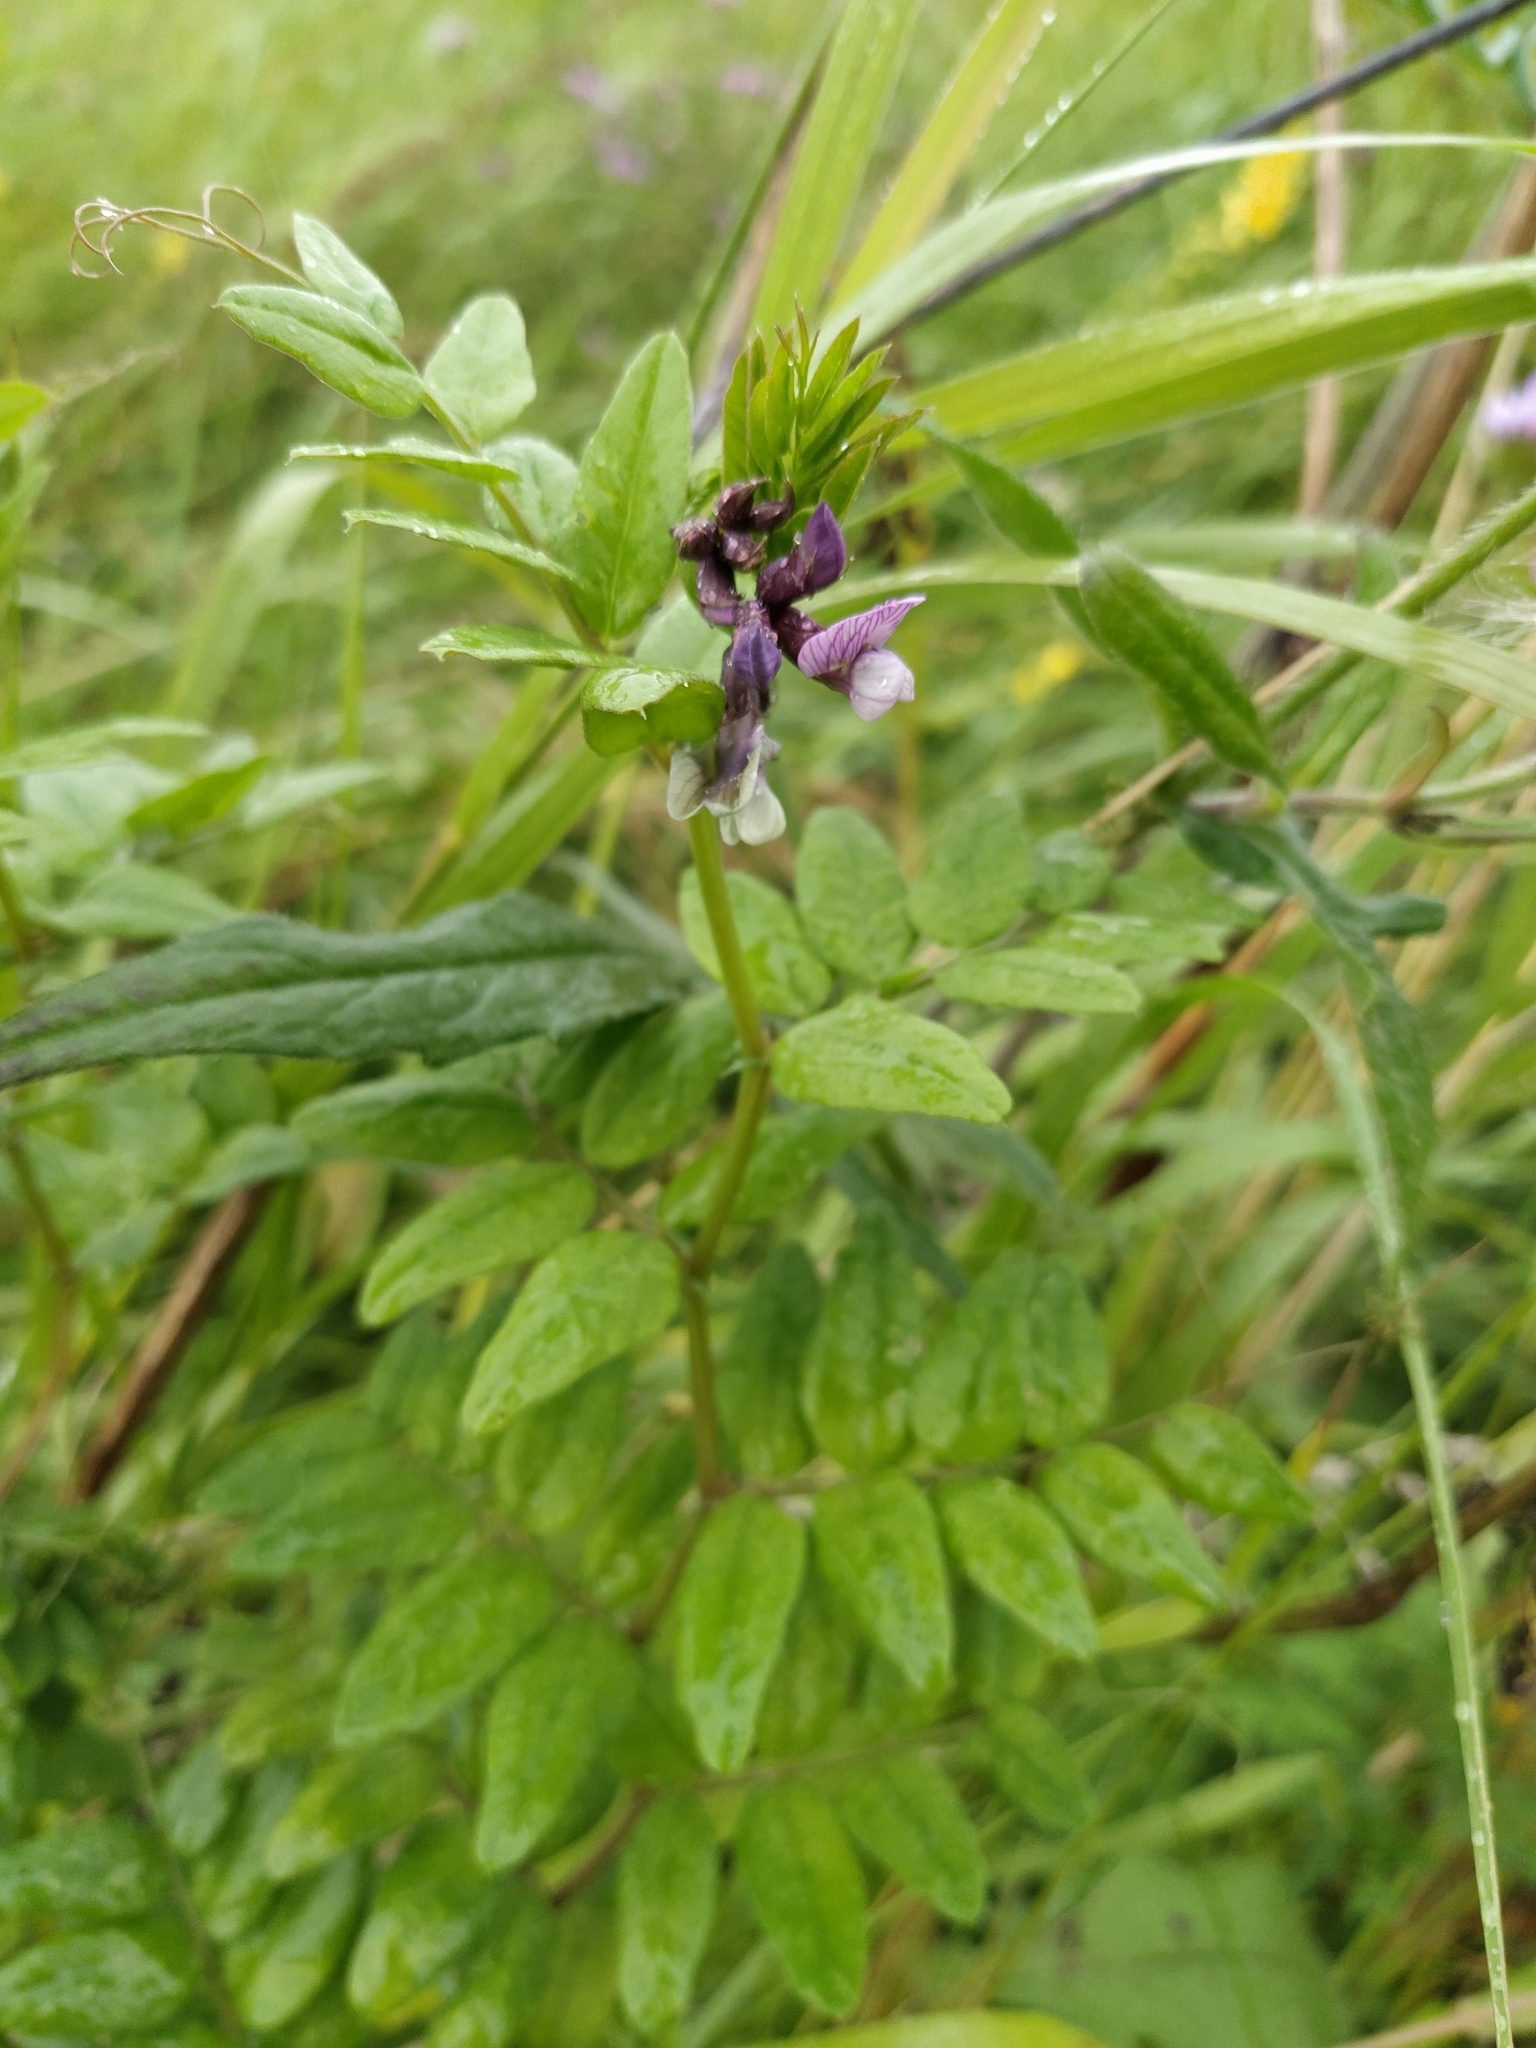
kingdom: Plantae
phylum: Tracheophyta
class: Magnoliopsida
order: Fabales
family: Fabaceae
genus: Vicia
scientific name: Vicia sepium
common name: Bush vetch
